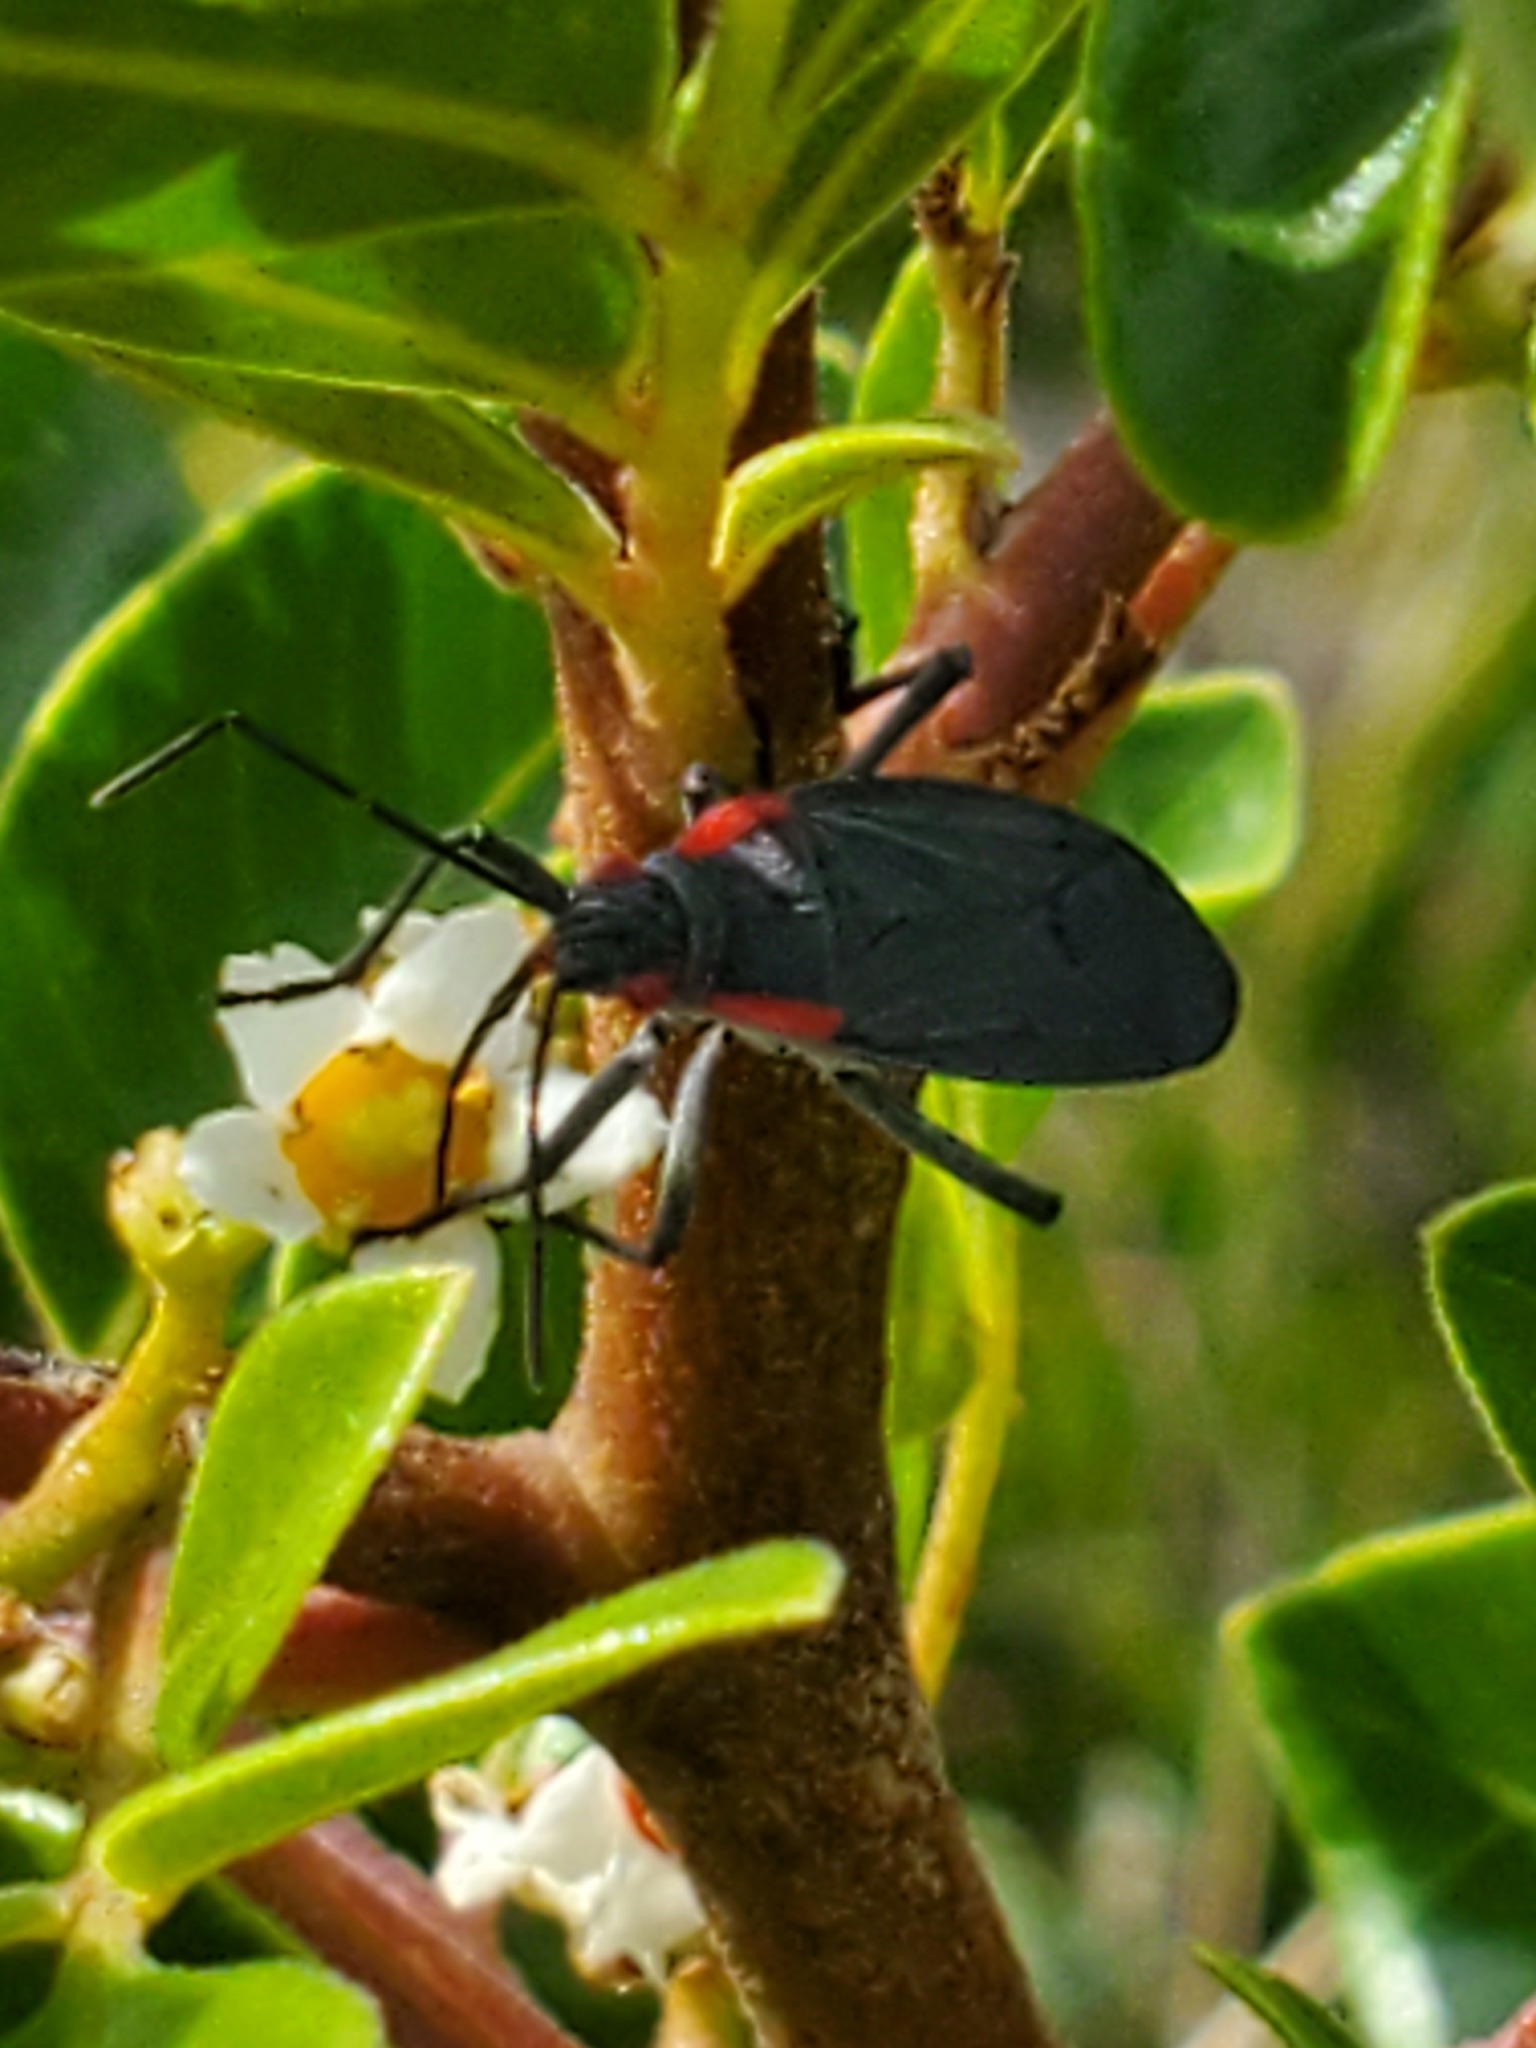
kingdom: Animalia
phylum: Arthropoda
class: Insecta
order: Hemiptera
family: Rhopalidae
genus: Jadera
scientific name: Jadera haematoloma
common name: Red-shouldered bug
